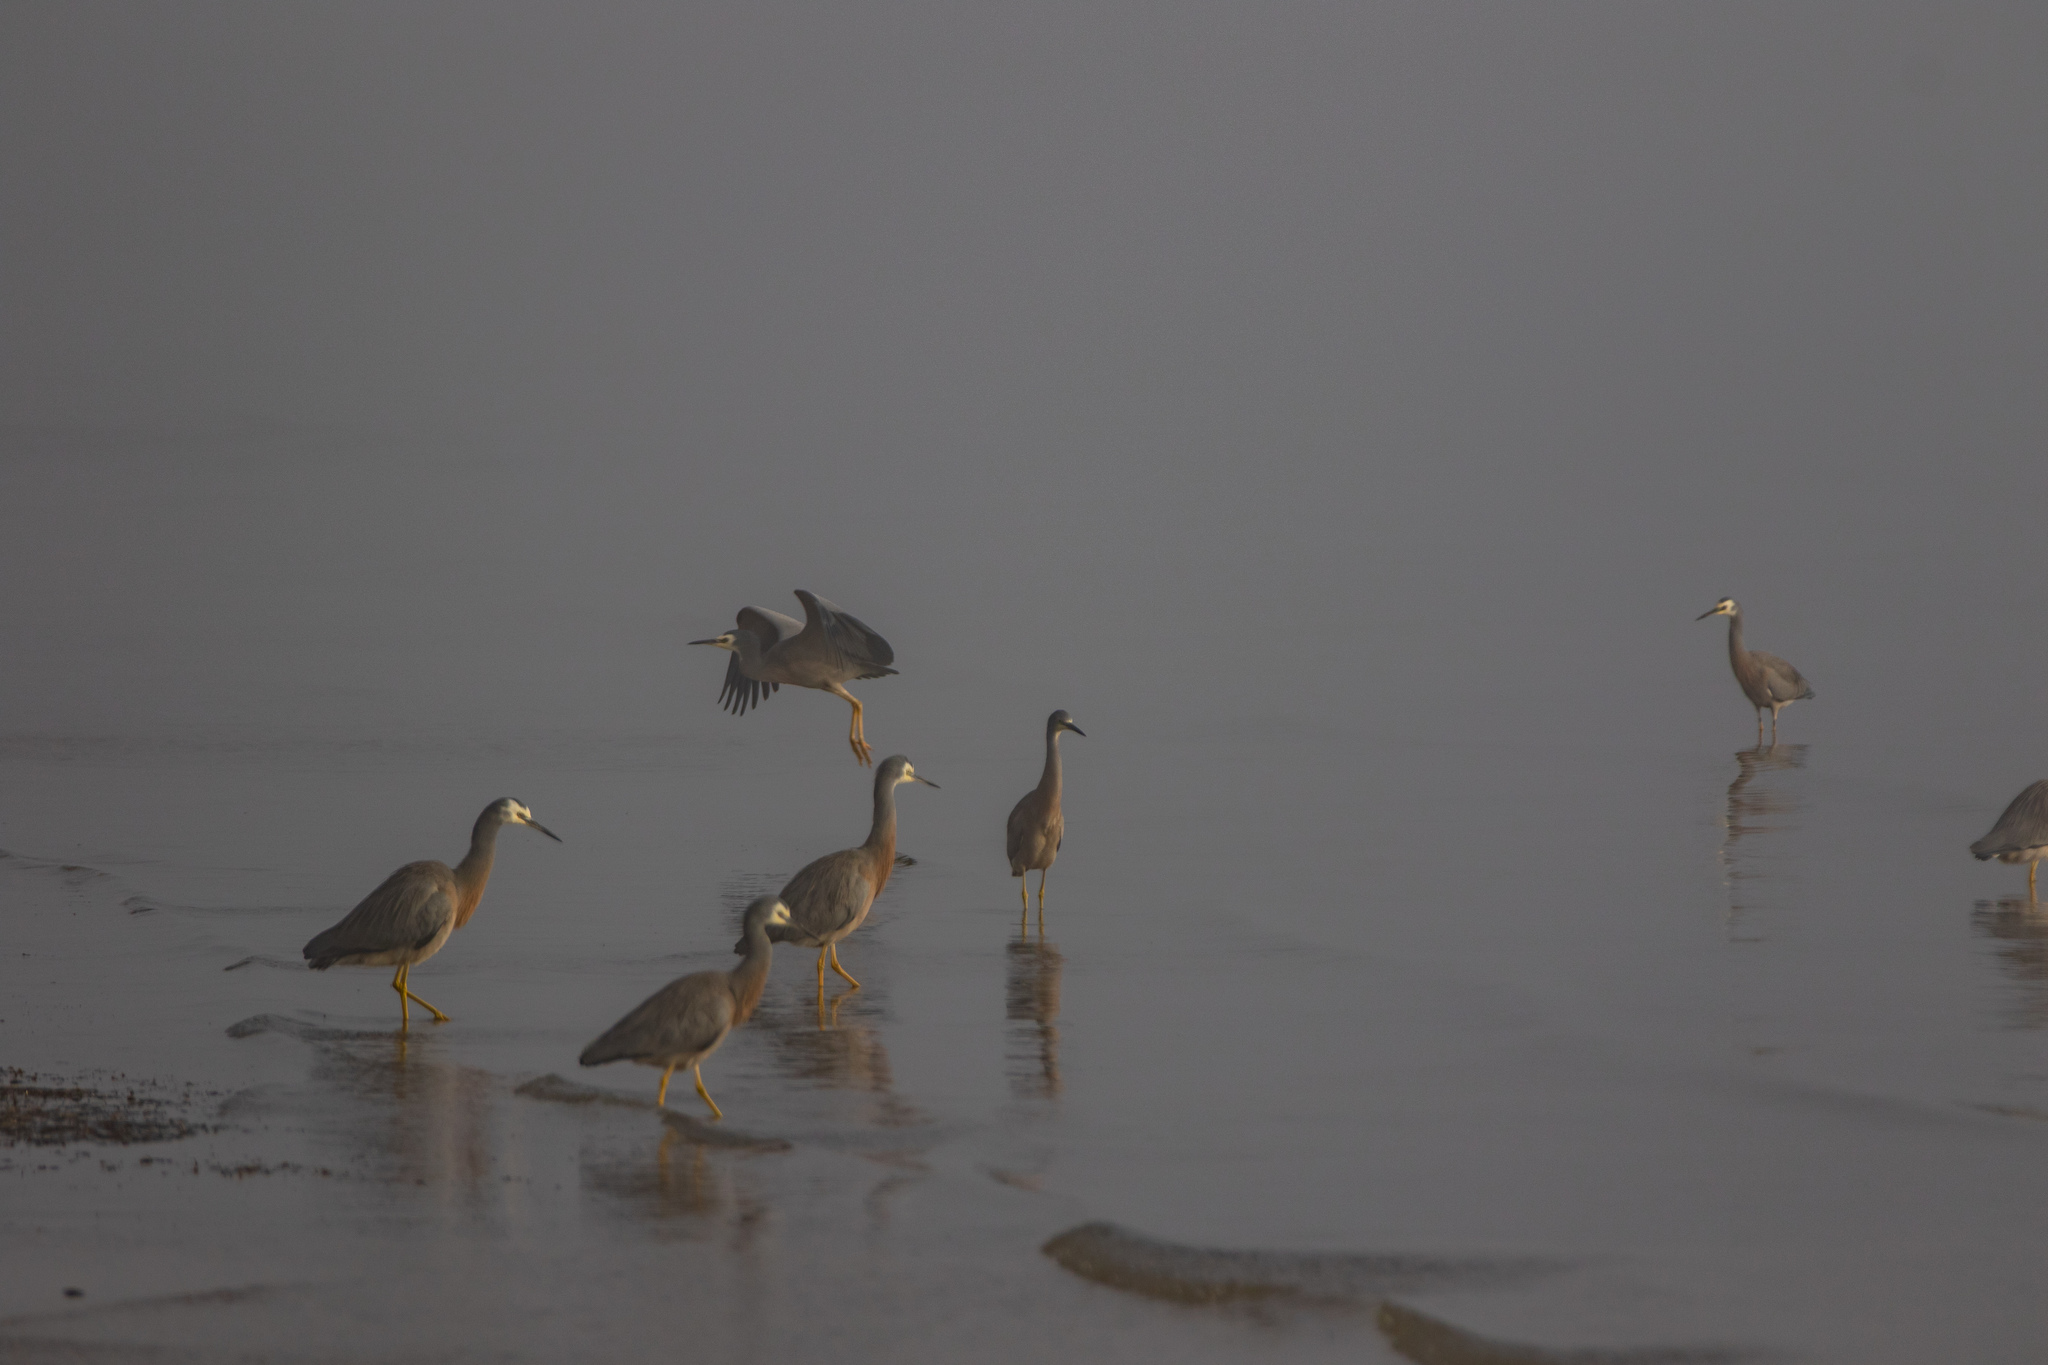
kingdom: Animalia
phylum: Chordata
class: Aves
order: Pelecaniformes
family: Ardeidae
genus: Egretta
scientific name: Egretta novaehollandiae
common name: White-faced heron
